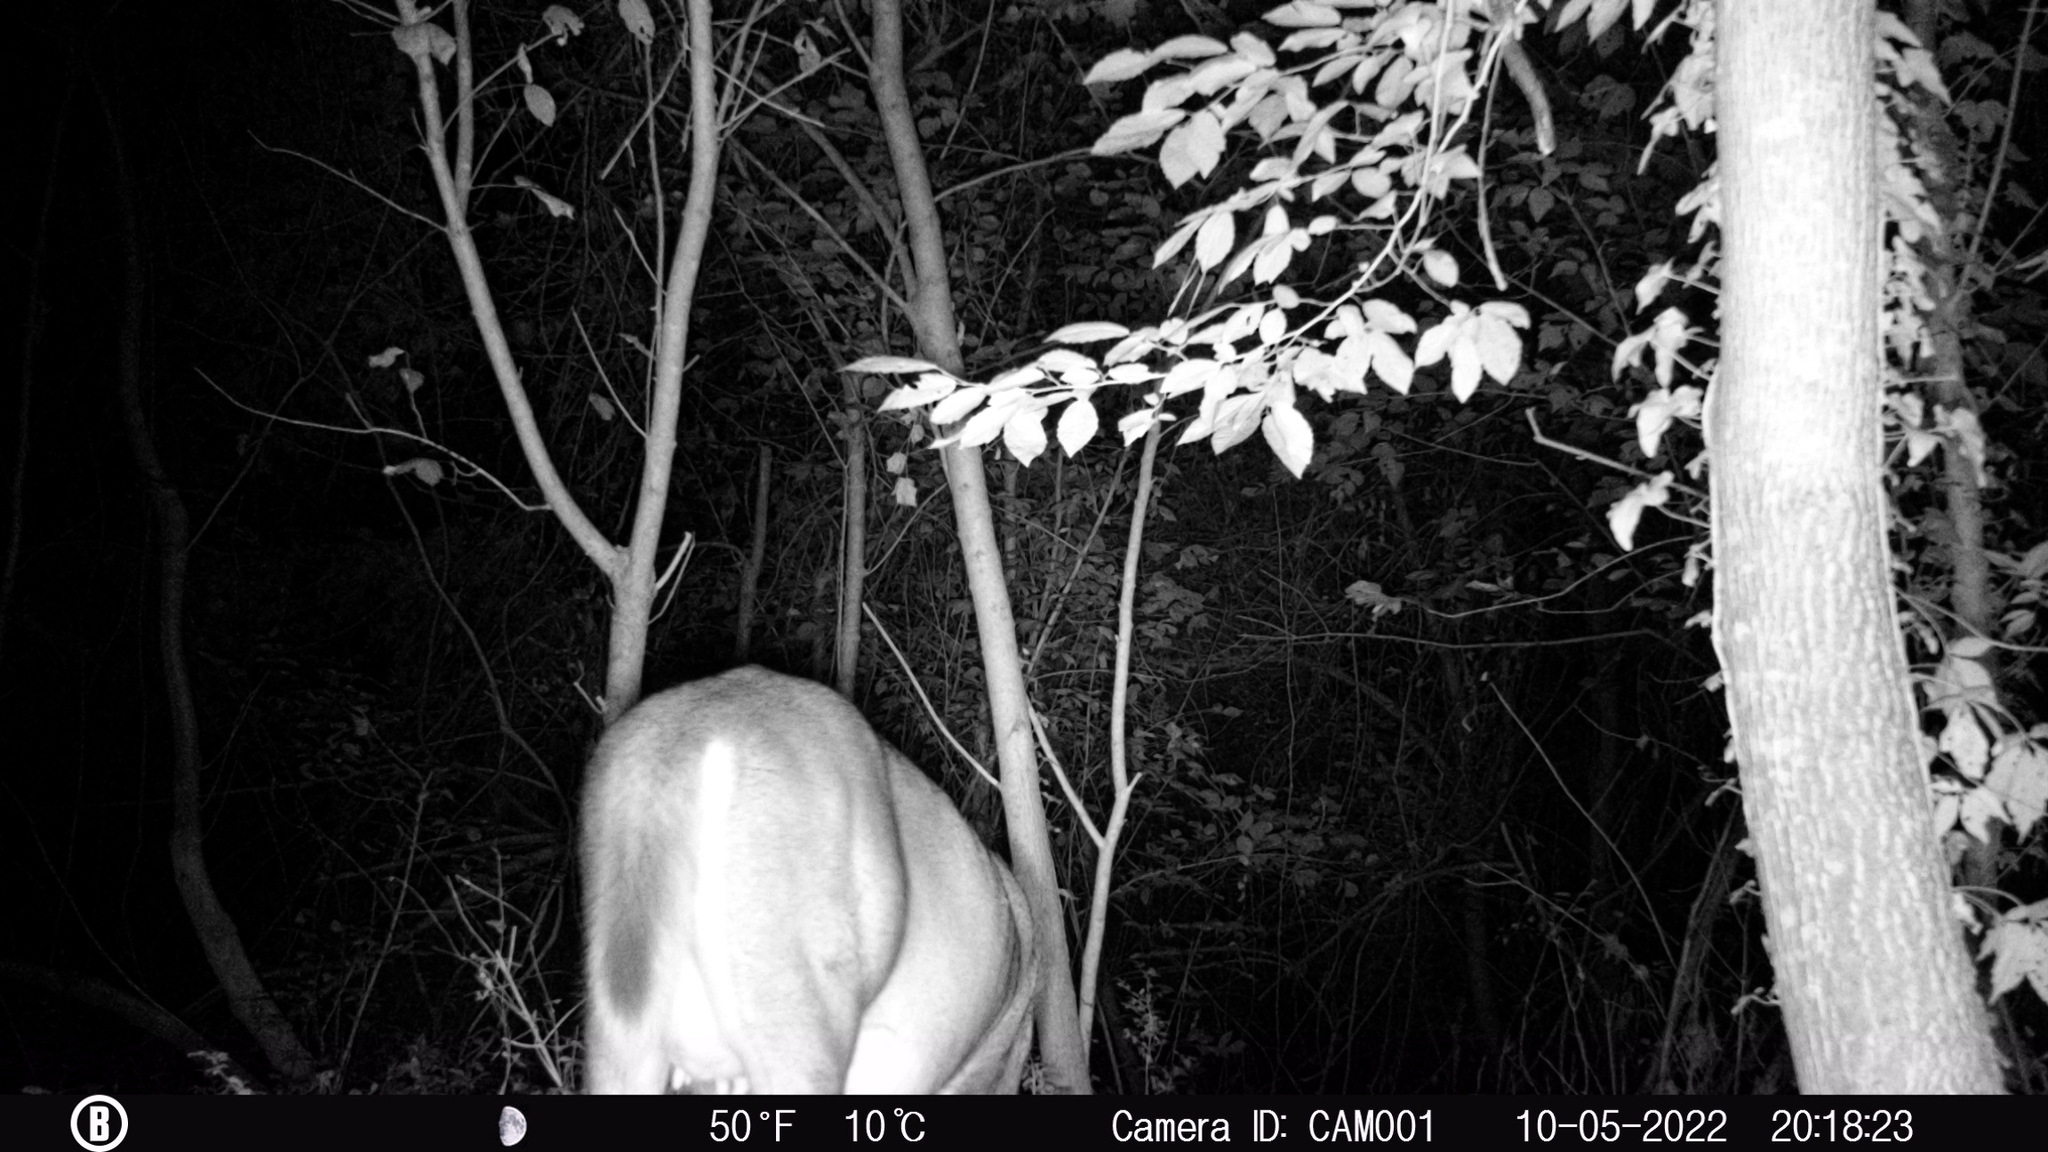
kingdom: Animalia
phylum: Chordata
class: Mammalia
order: Artiodactyla
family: Cervidae
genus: Odocoileus
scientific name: Odocoileus virginianus
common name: White-tailed deer
